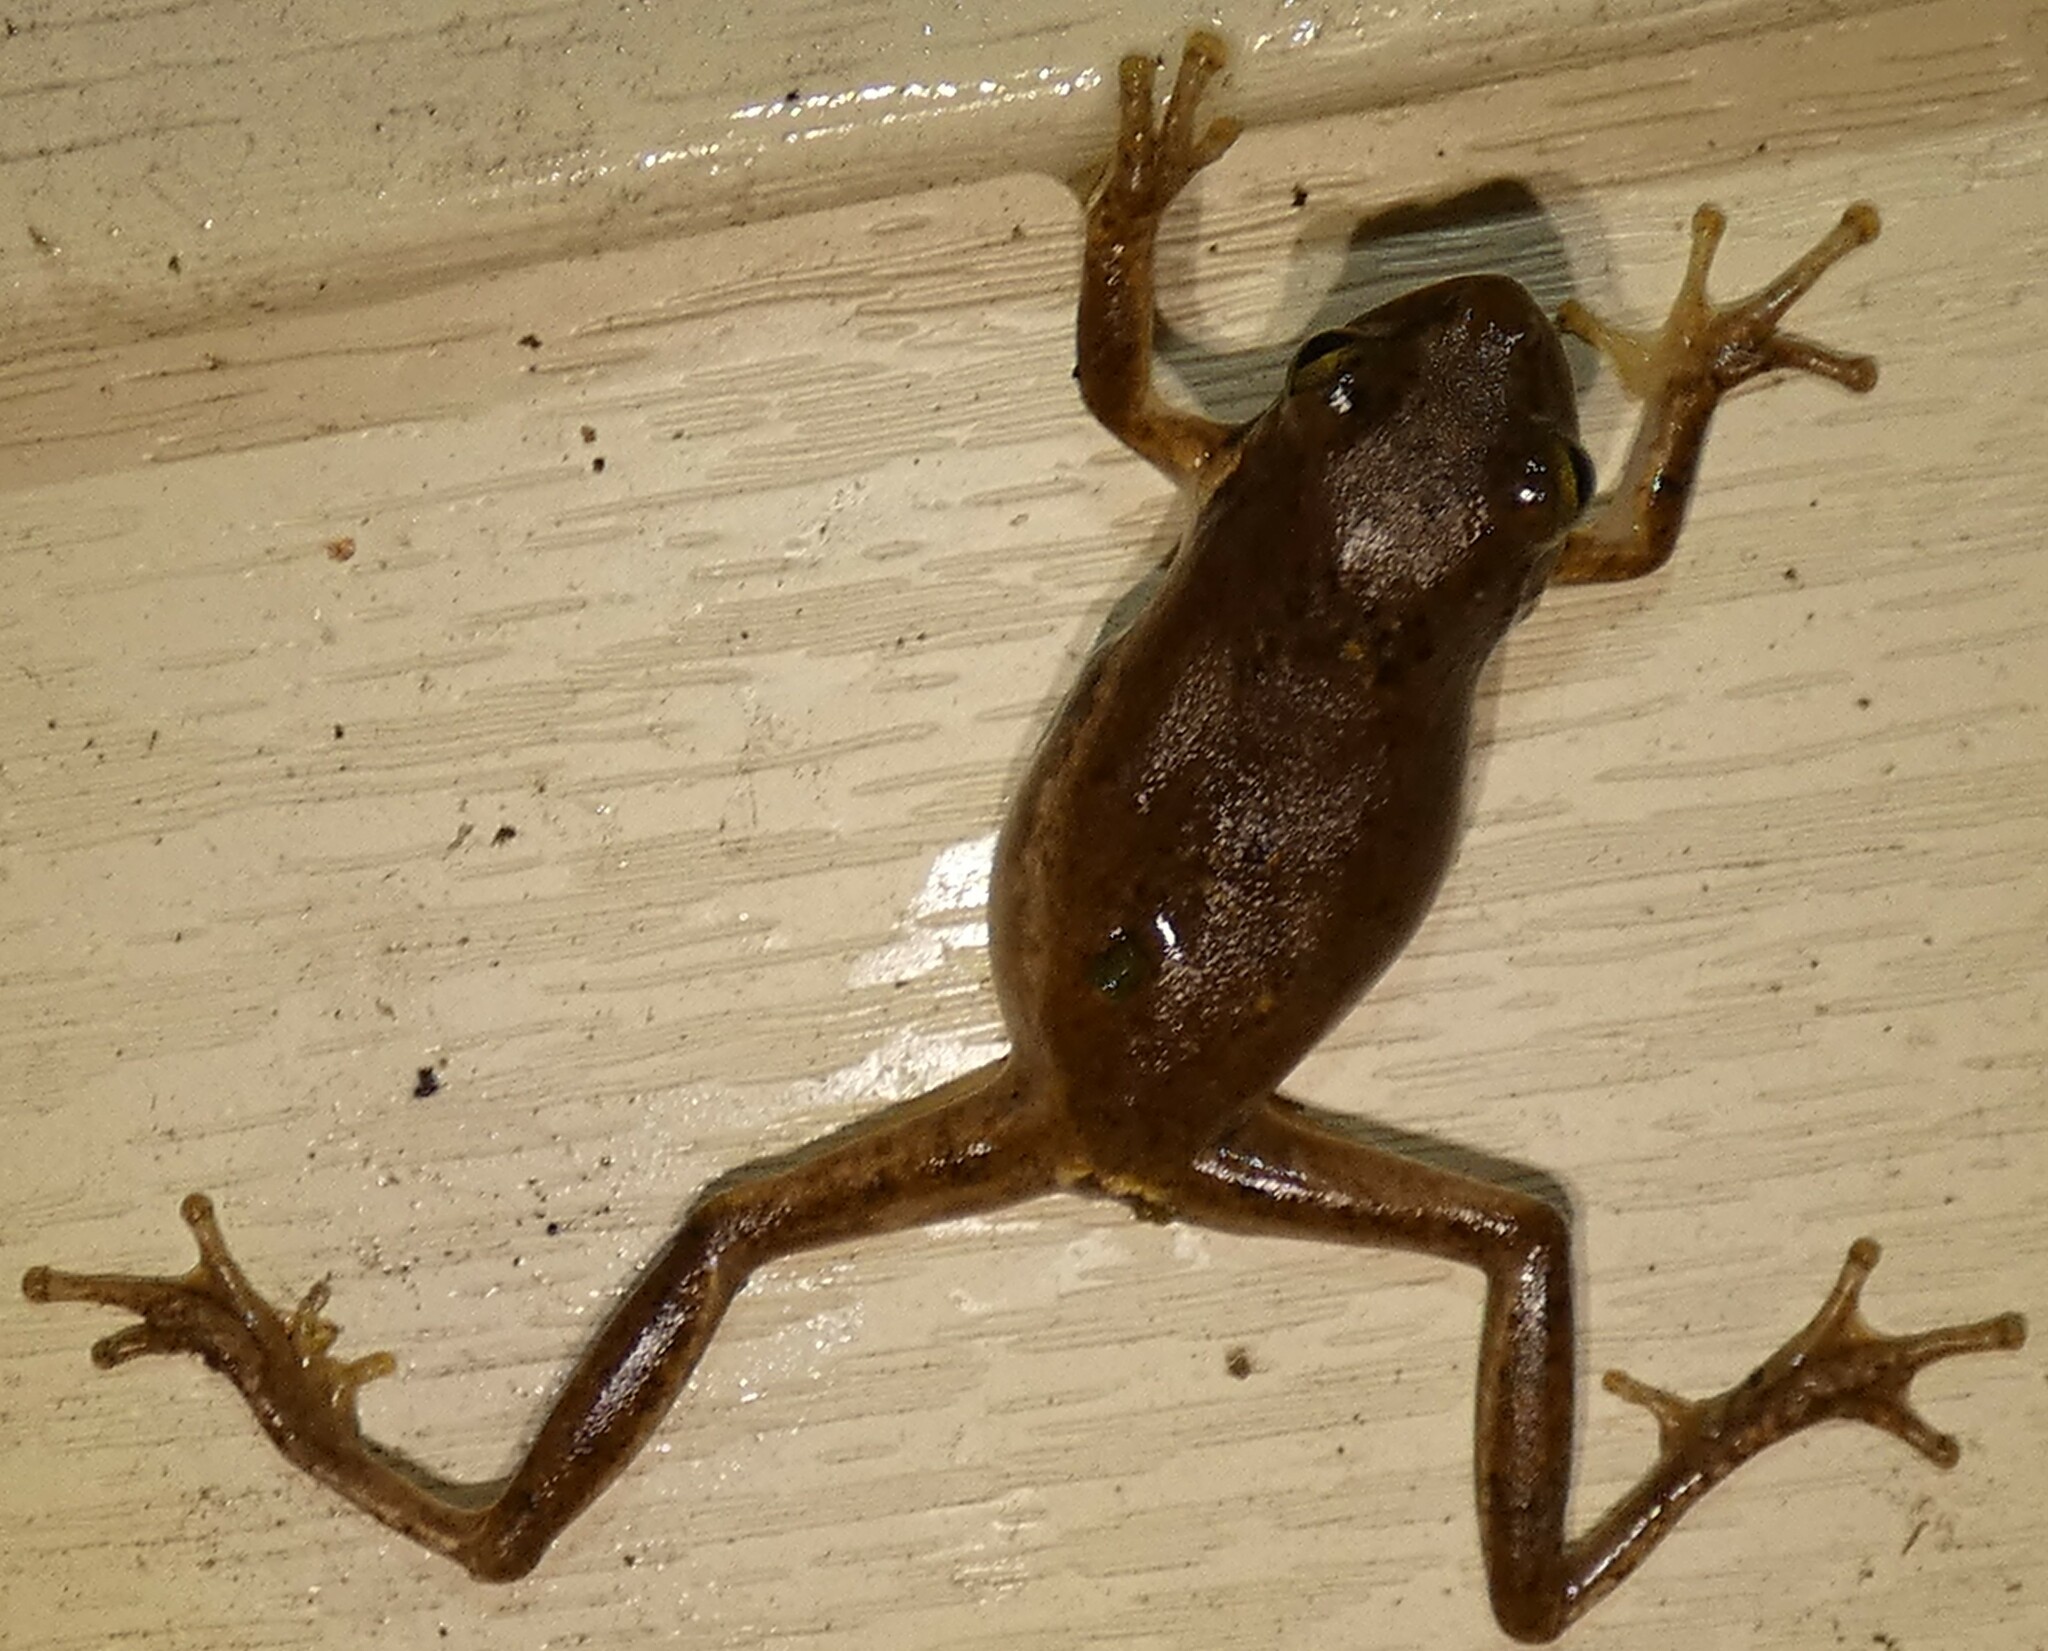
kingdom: Animalia
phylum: Chordata
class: Amphibia
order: Anura
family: Hylidae
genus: Dryophytes
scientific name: Dryophytes squirellus
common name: Squirrel treefrog
